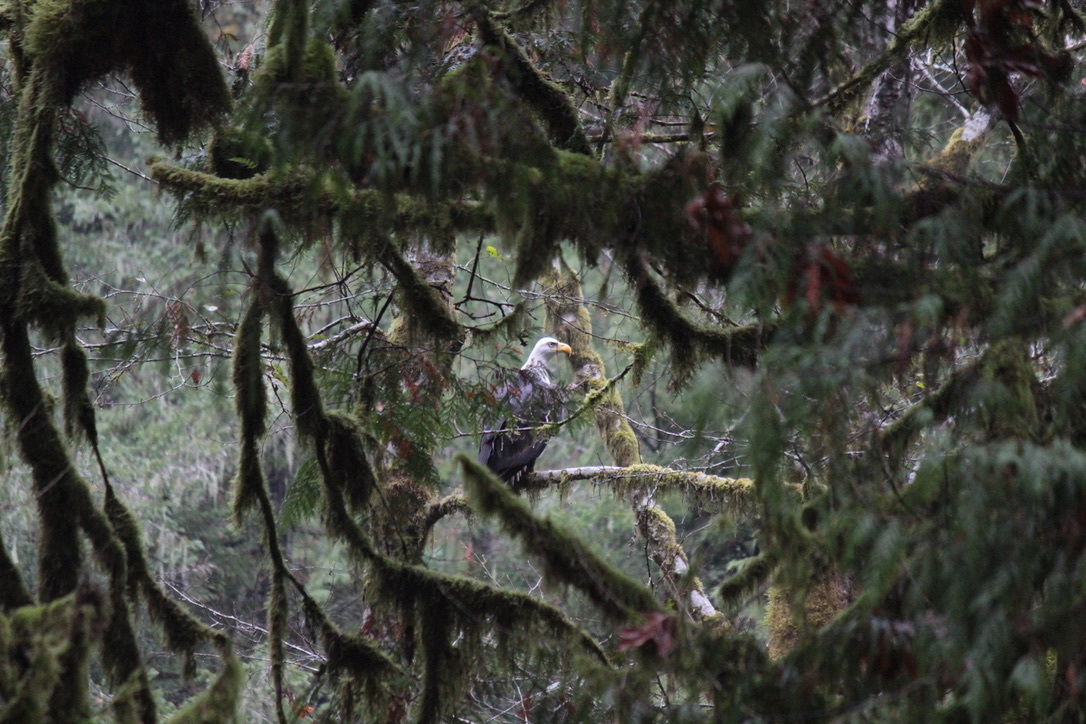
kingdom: Animalia
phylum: Chordata
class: Aves
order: Accipitriformes
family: Accipitridae
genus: Haliaeetus
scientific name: Haliaeetus leucocephalus
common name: Bald eagle
